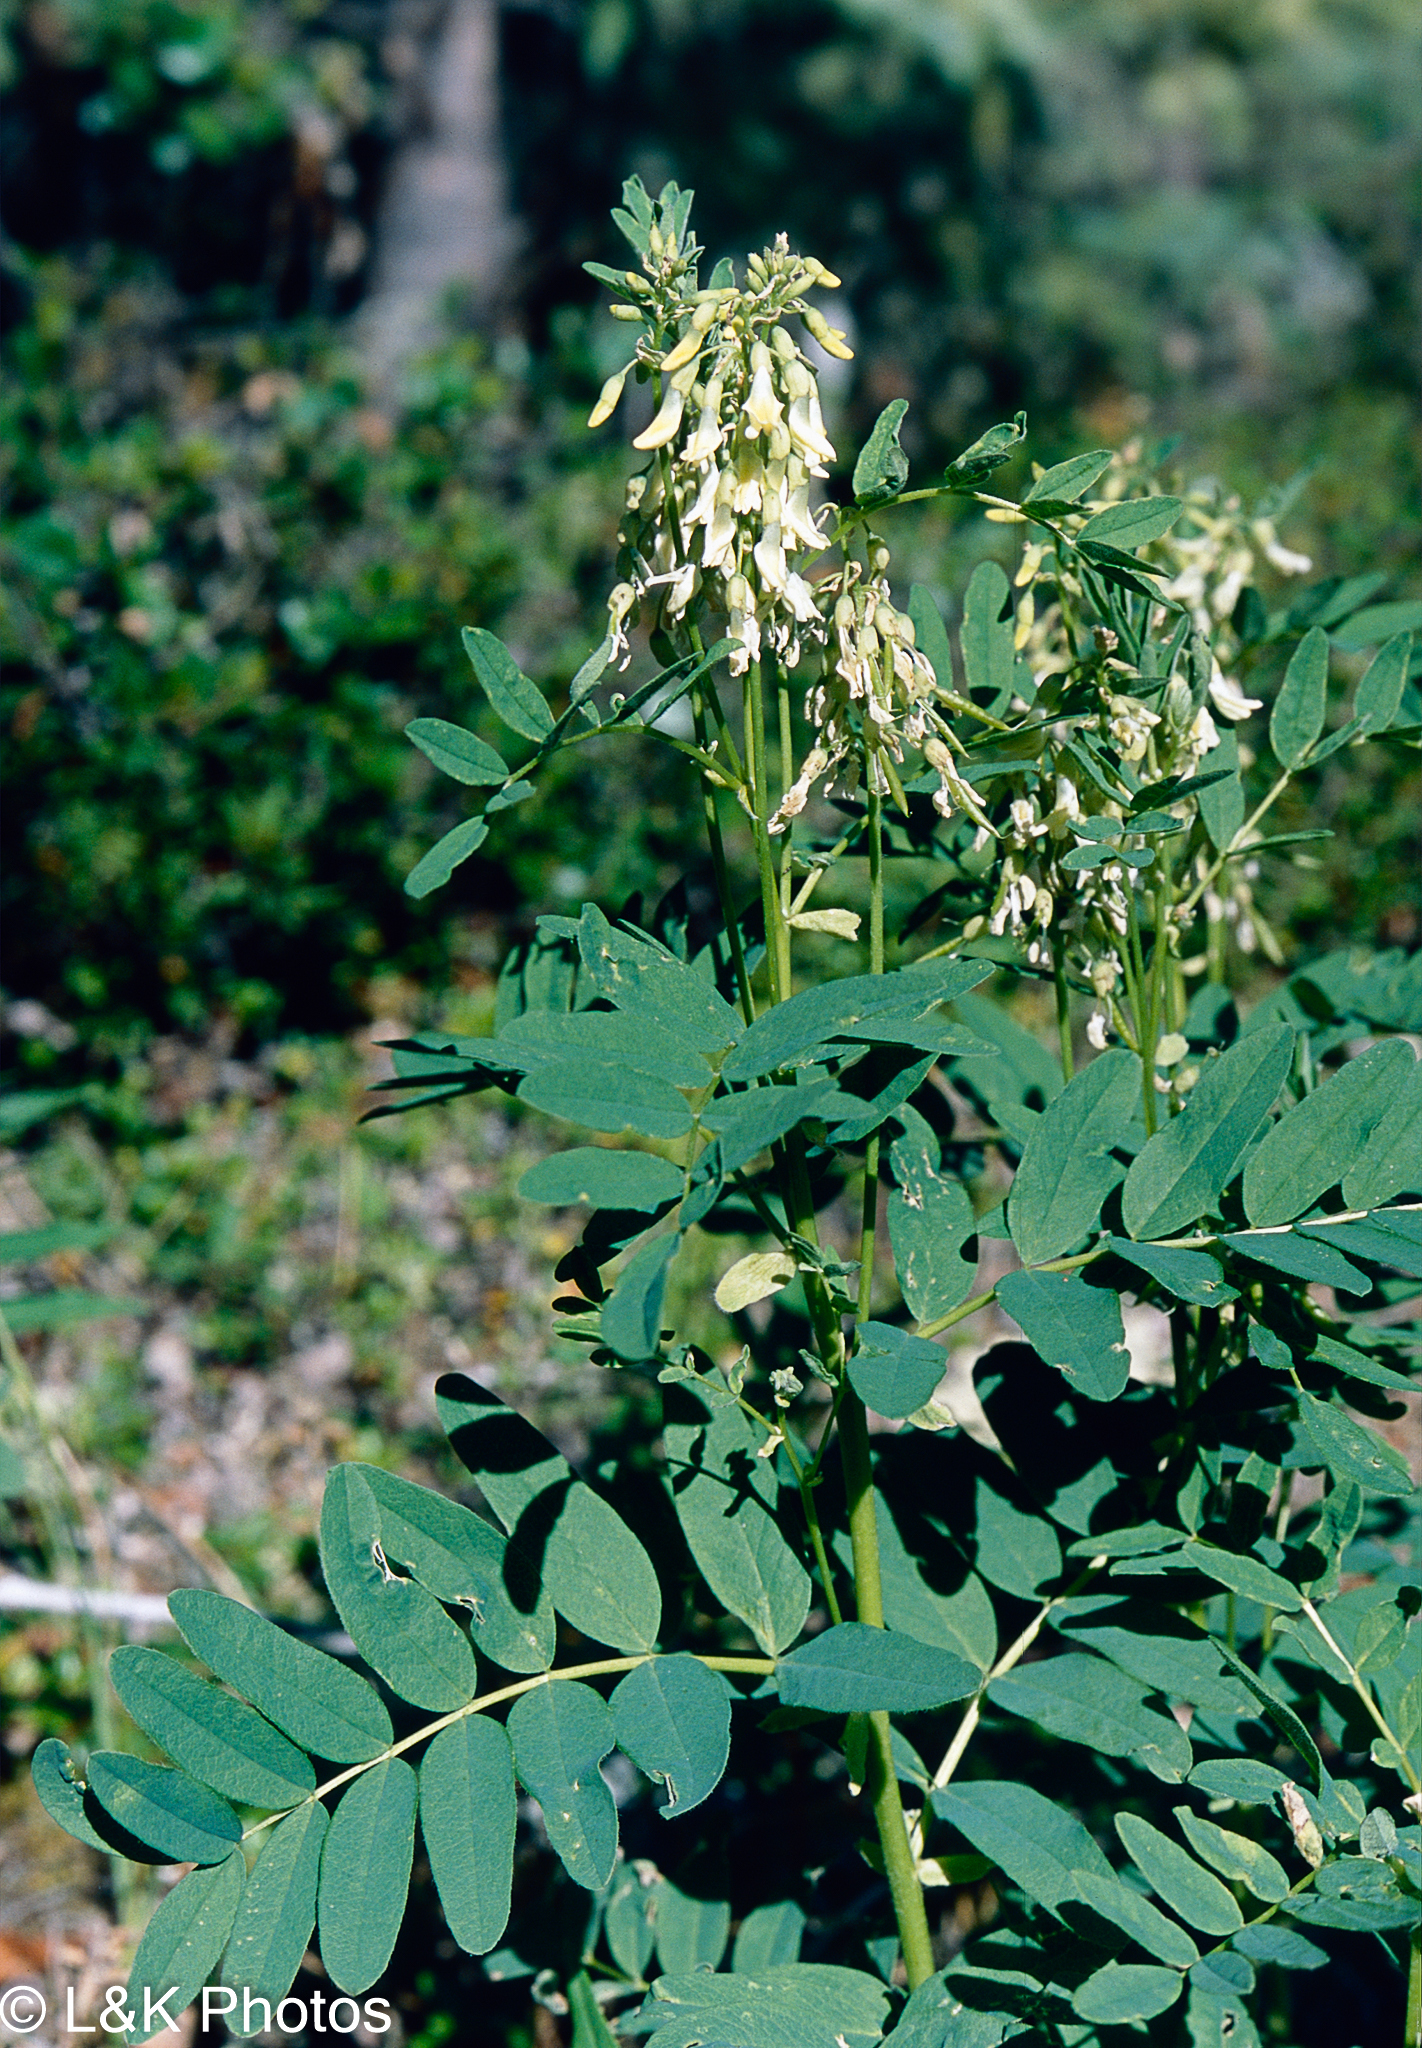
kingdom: Plantae
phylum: Tracheophyta
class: Magnoliopsida
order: Fabales
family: Fabaceae
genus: Astragalus
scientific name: Astragalus americanus
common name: American milk-vetch
